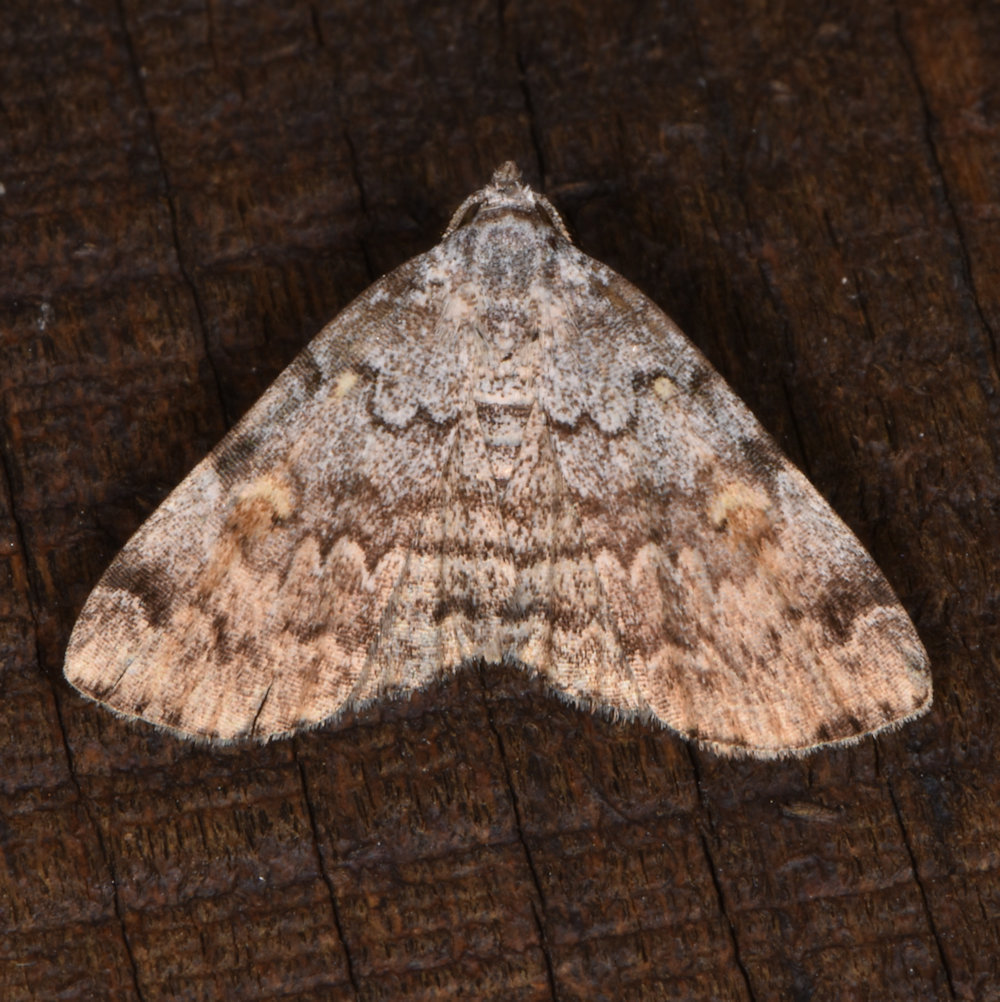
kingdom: Animalia
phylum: Arthropoda
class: Insecta
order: Lepidoptera
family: Erebidae
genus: Idia
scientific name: Idia americalis
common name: American idia moth
